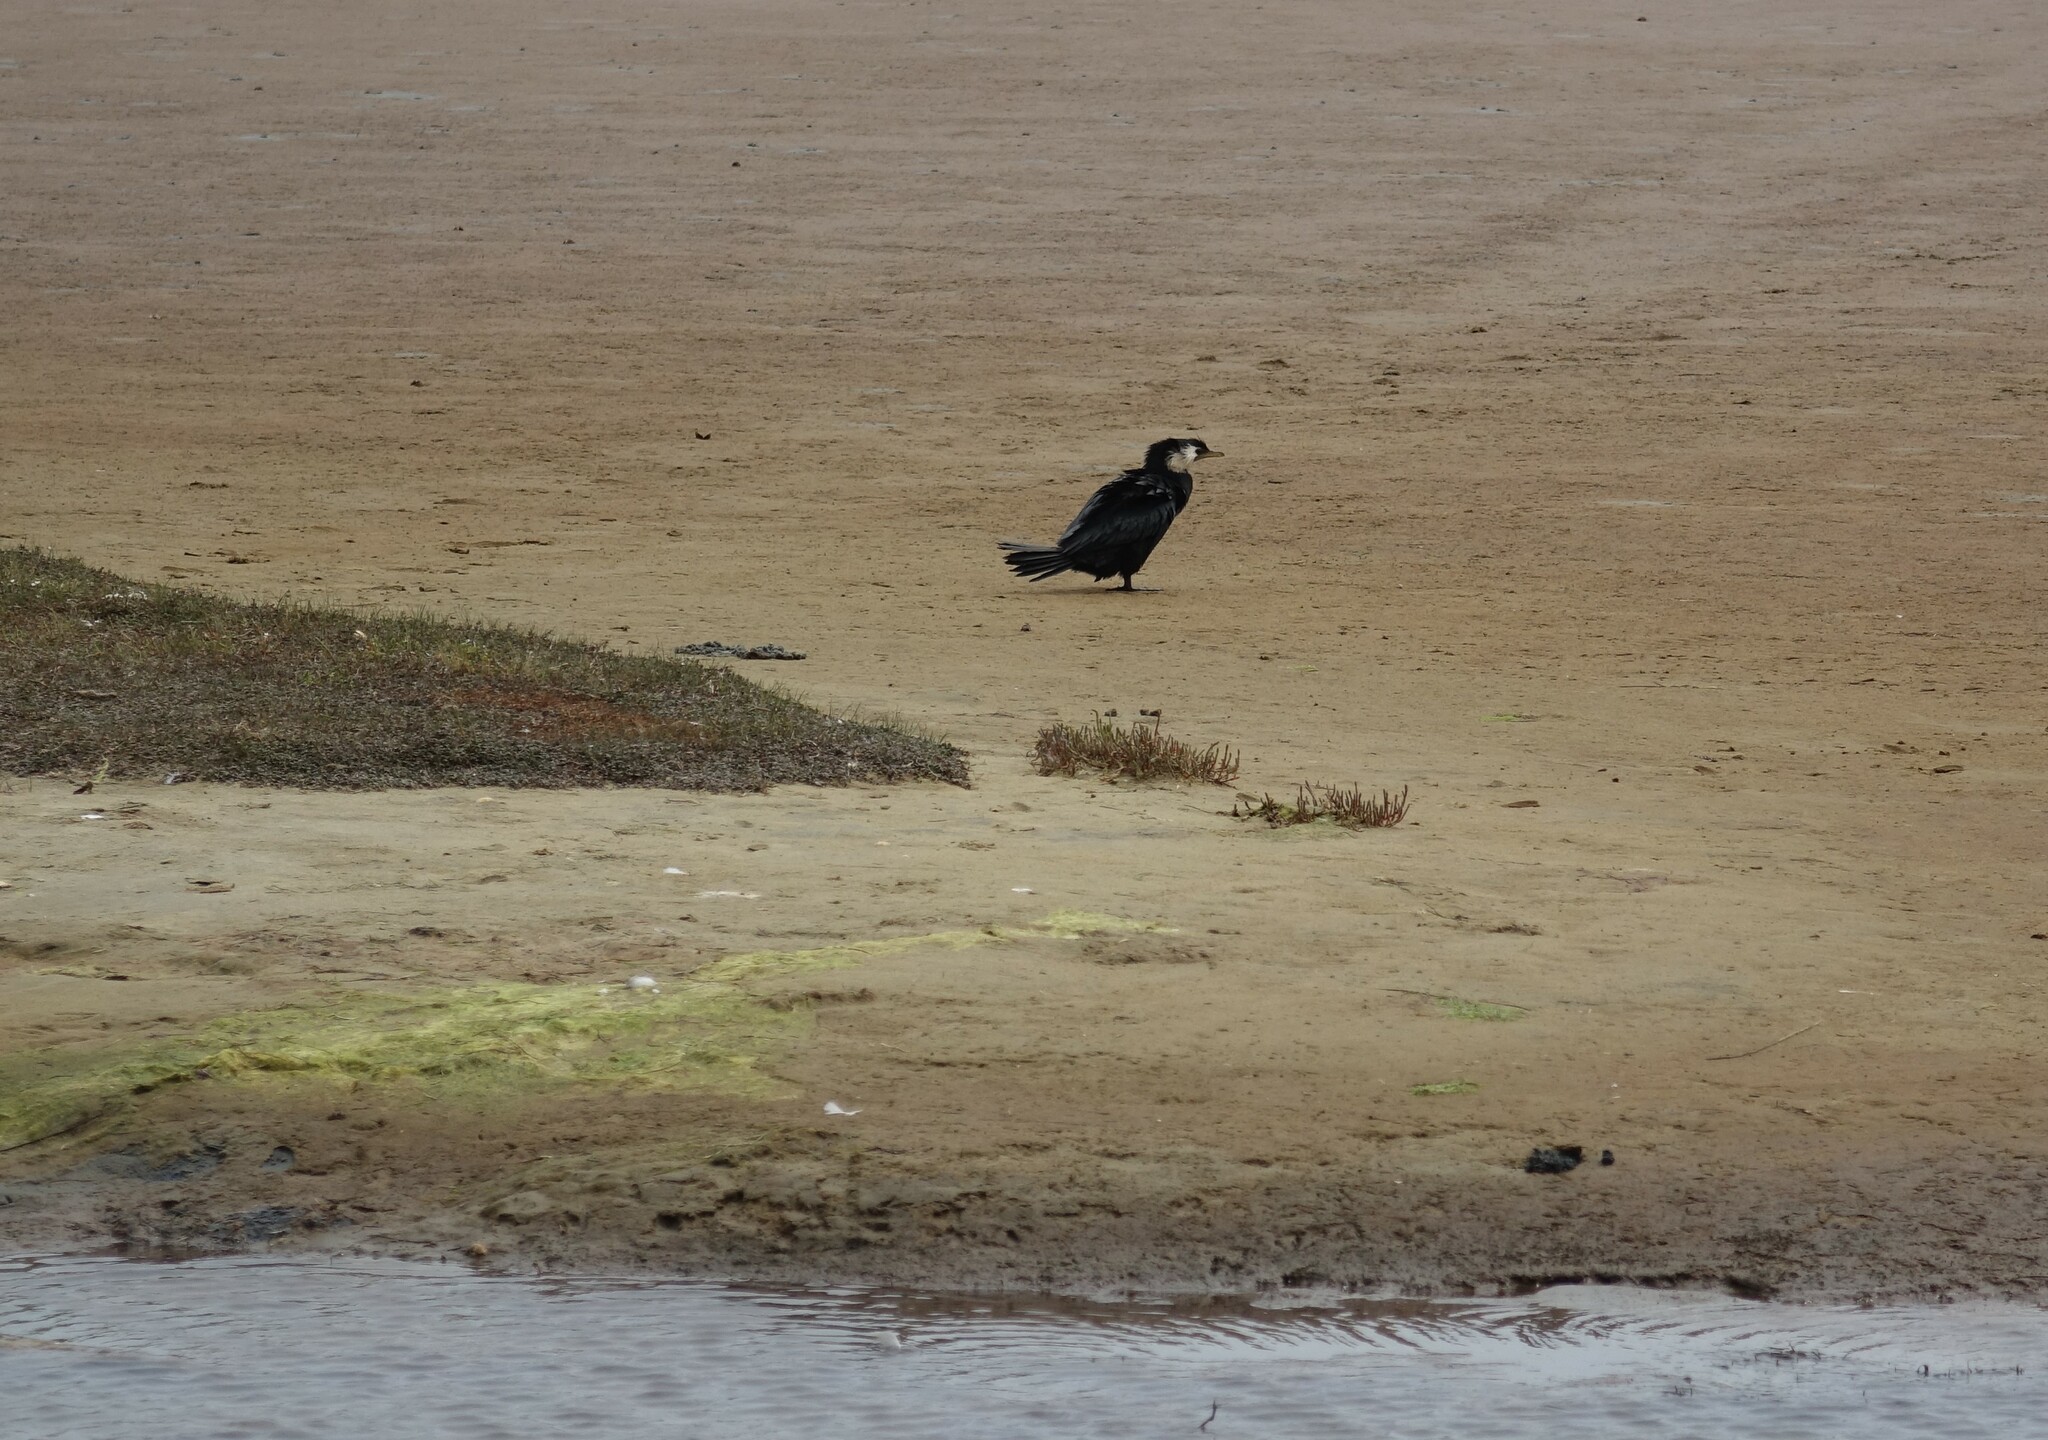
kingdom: Animalia
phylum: Chordata
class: Aves
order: Suliformes
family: Phalacrocoracidae
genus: Microcarbo
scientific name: Microcarbo melanoleucos
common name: Little pied cormorant
